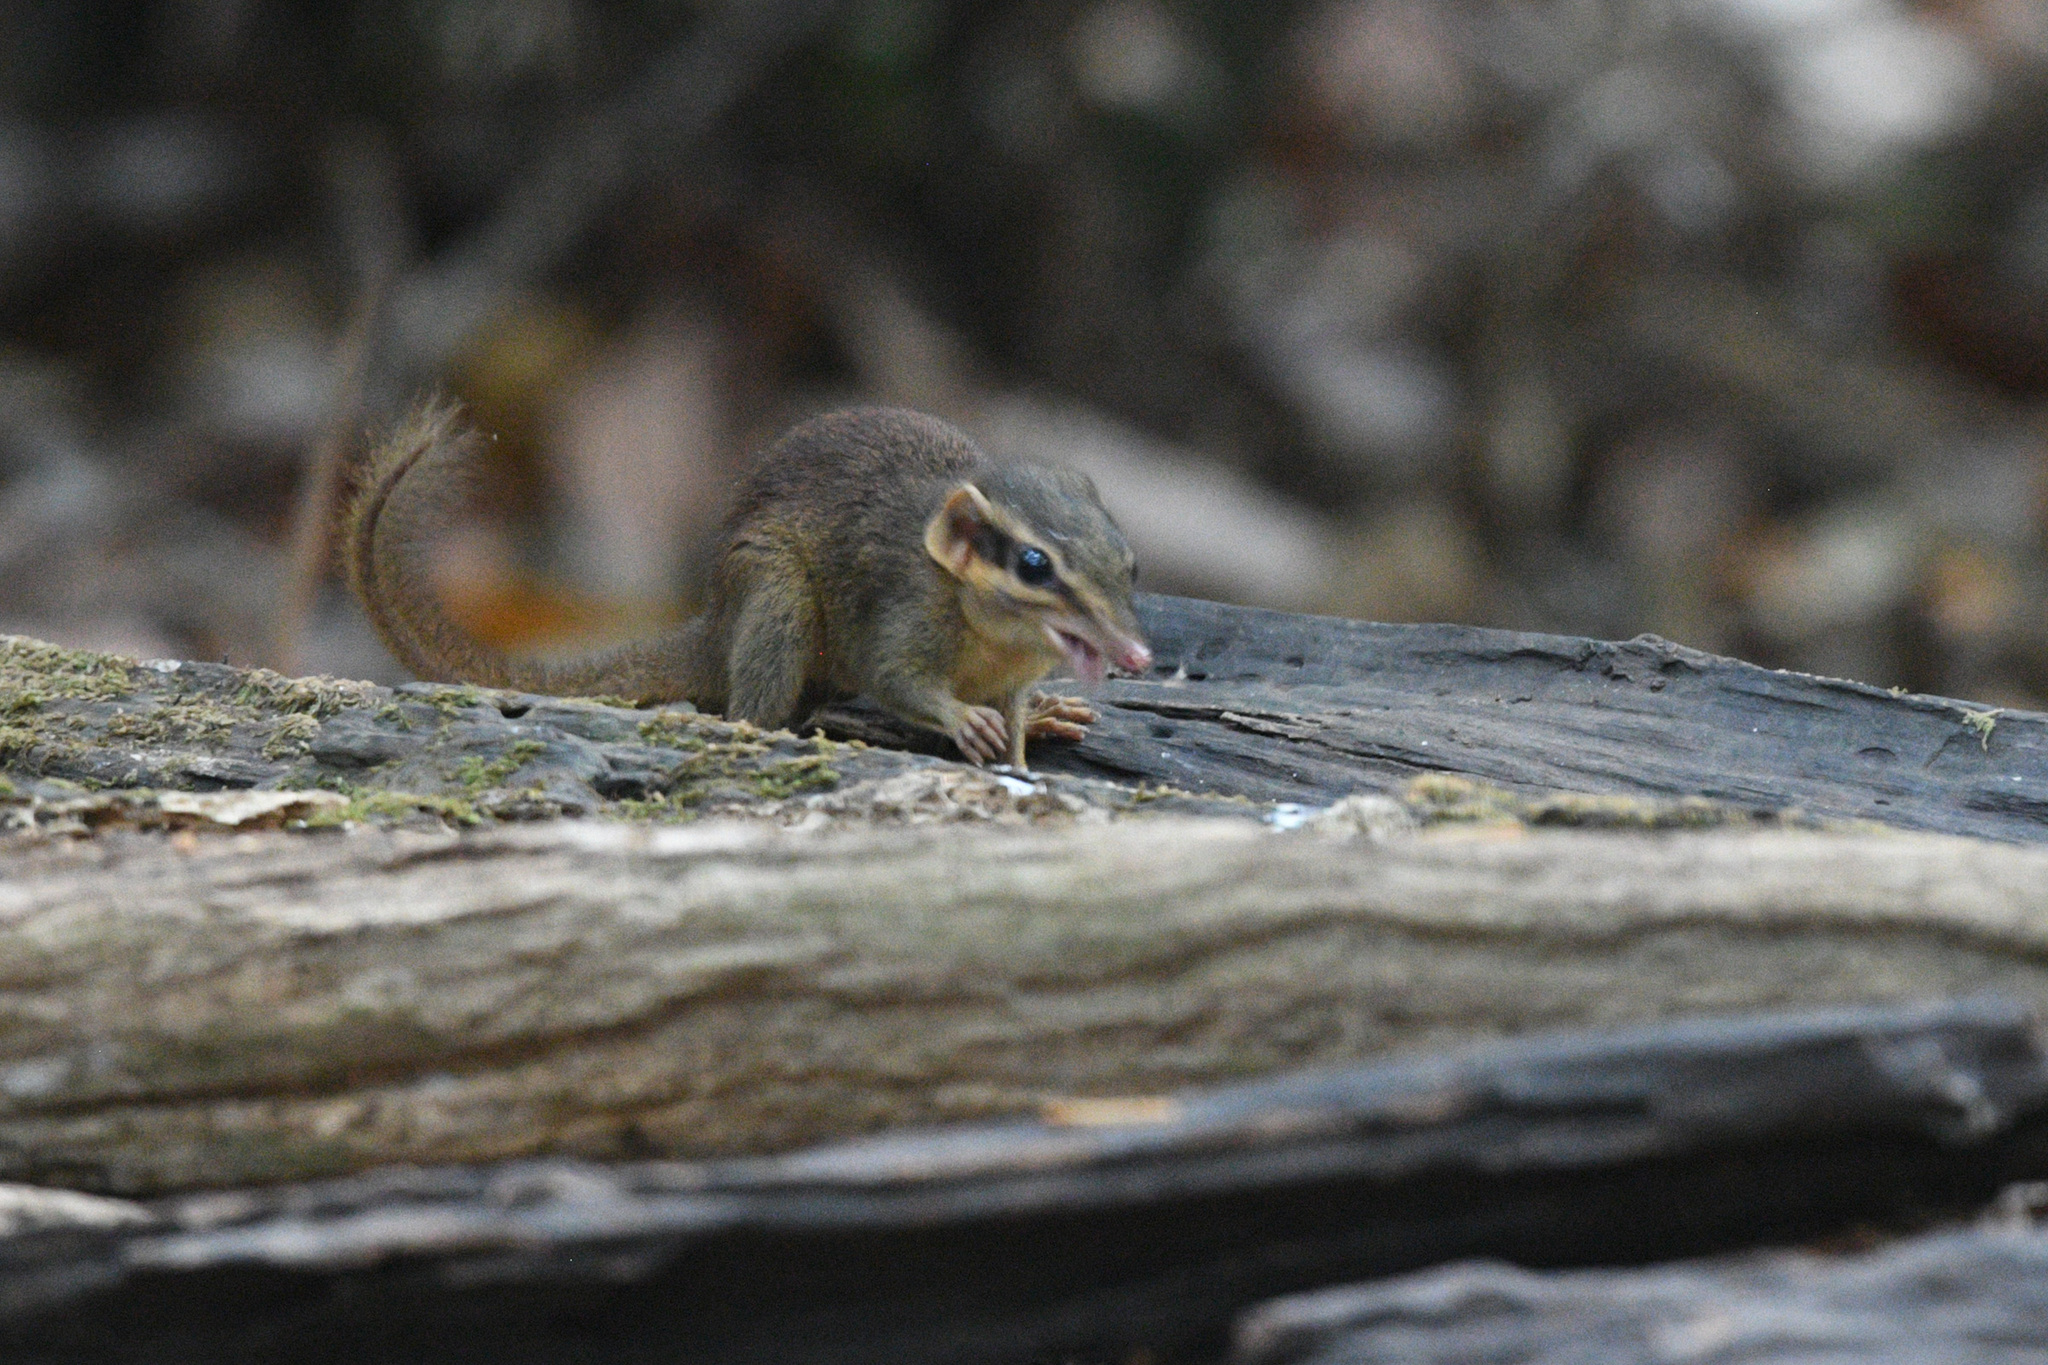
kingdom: Animalia
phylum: Chordata
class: Mammalia
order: Scandentia
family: Tupaiidae
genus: Dendrogale
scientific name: Dendrogale murina
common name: Northern smooth-tailed treeshrew
